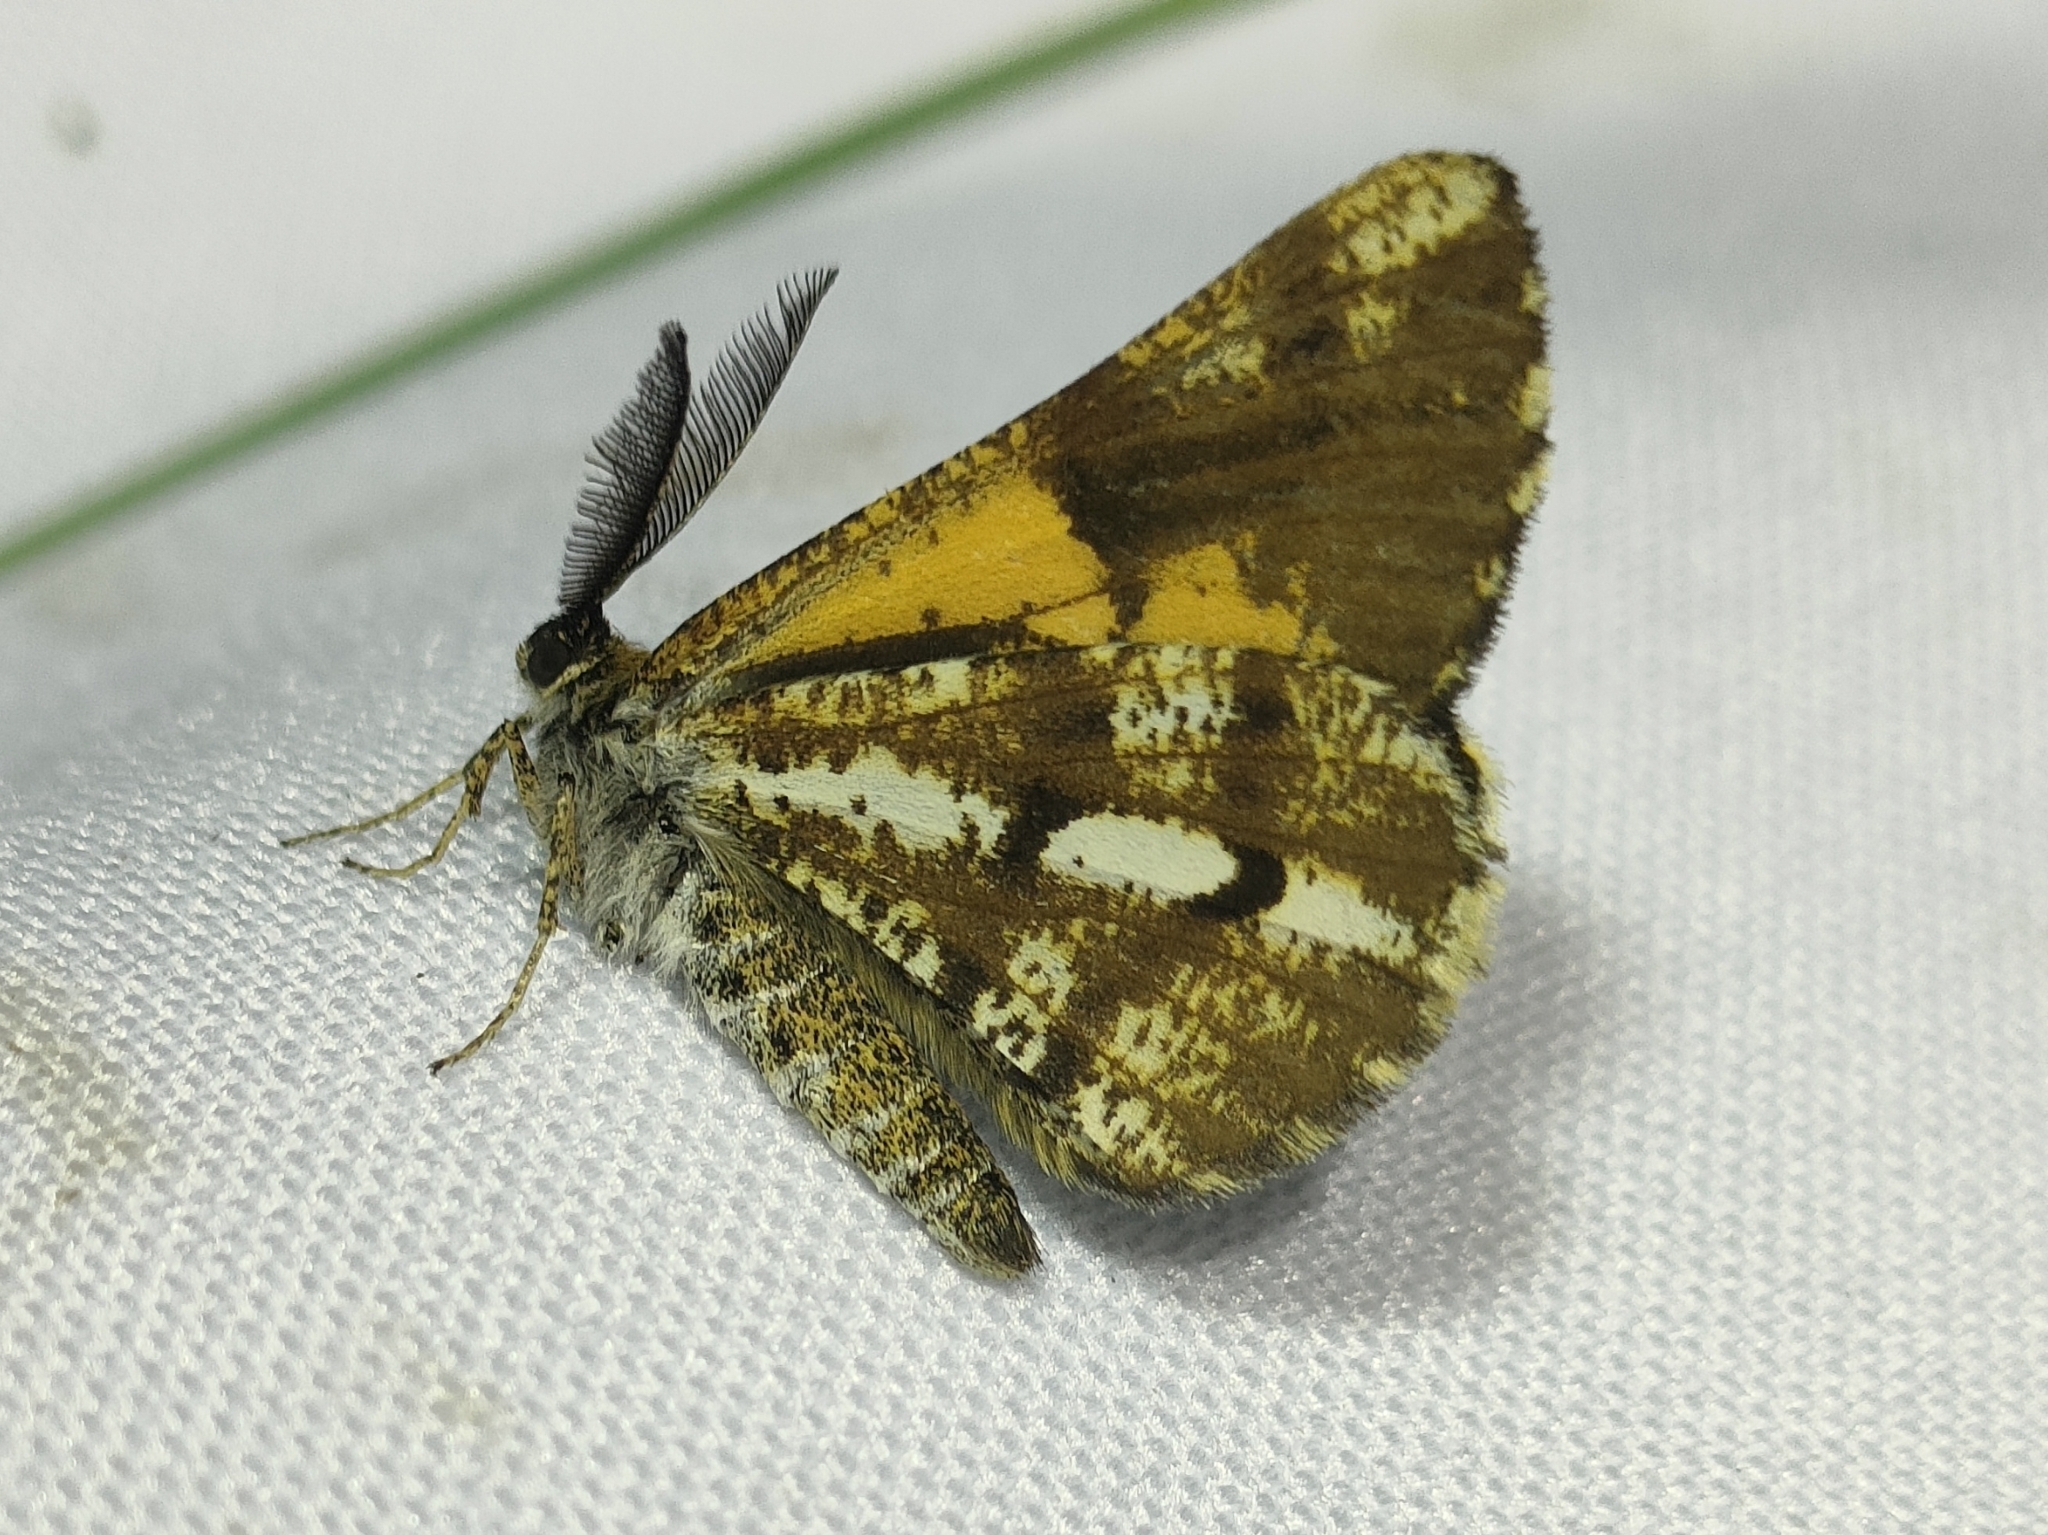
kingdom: Animalia
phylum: Arthropoda
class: Insecta
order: Lepidoptera
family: Geometridae
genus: Bupalus
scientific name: Bupalus piniaria
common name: Bordered white
